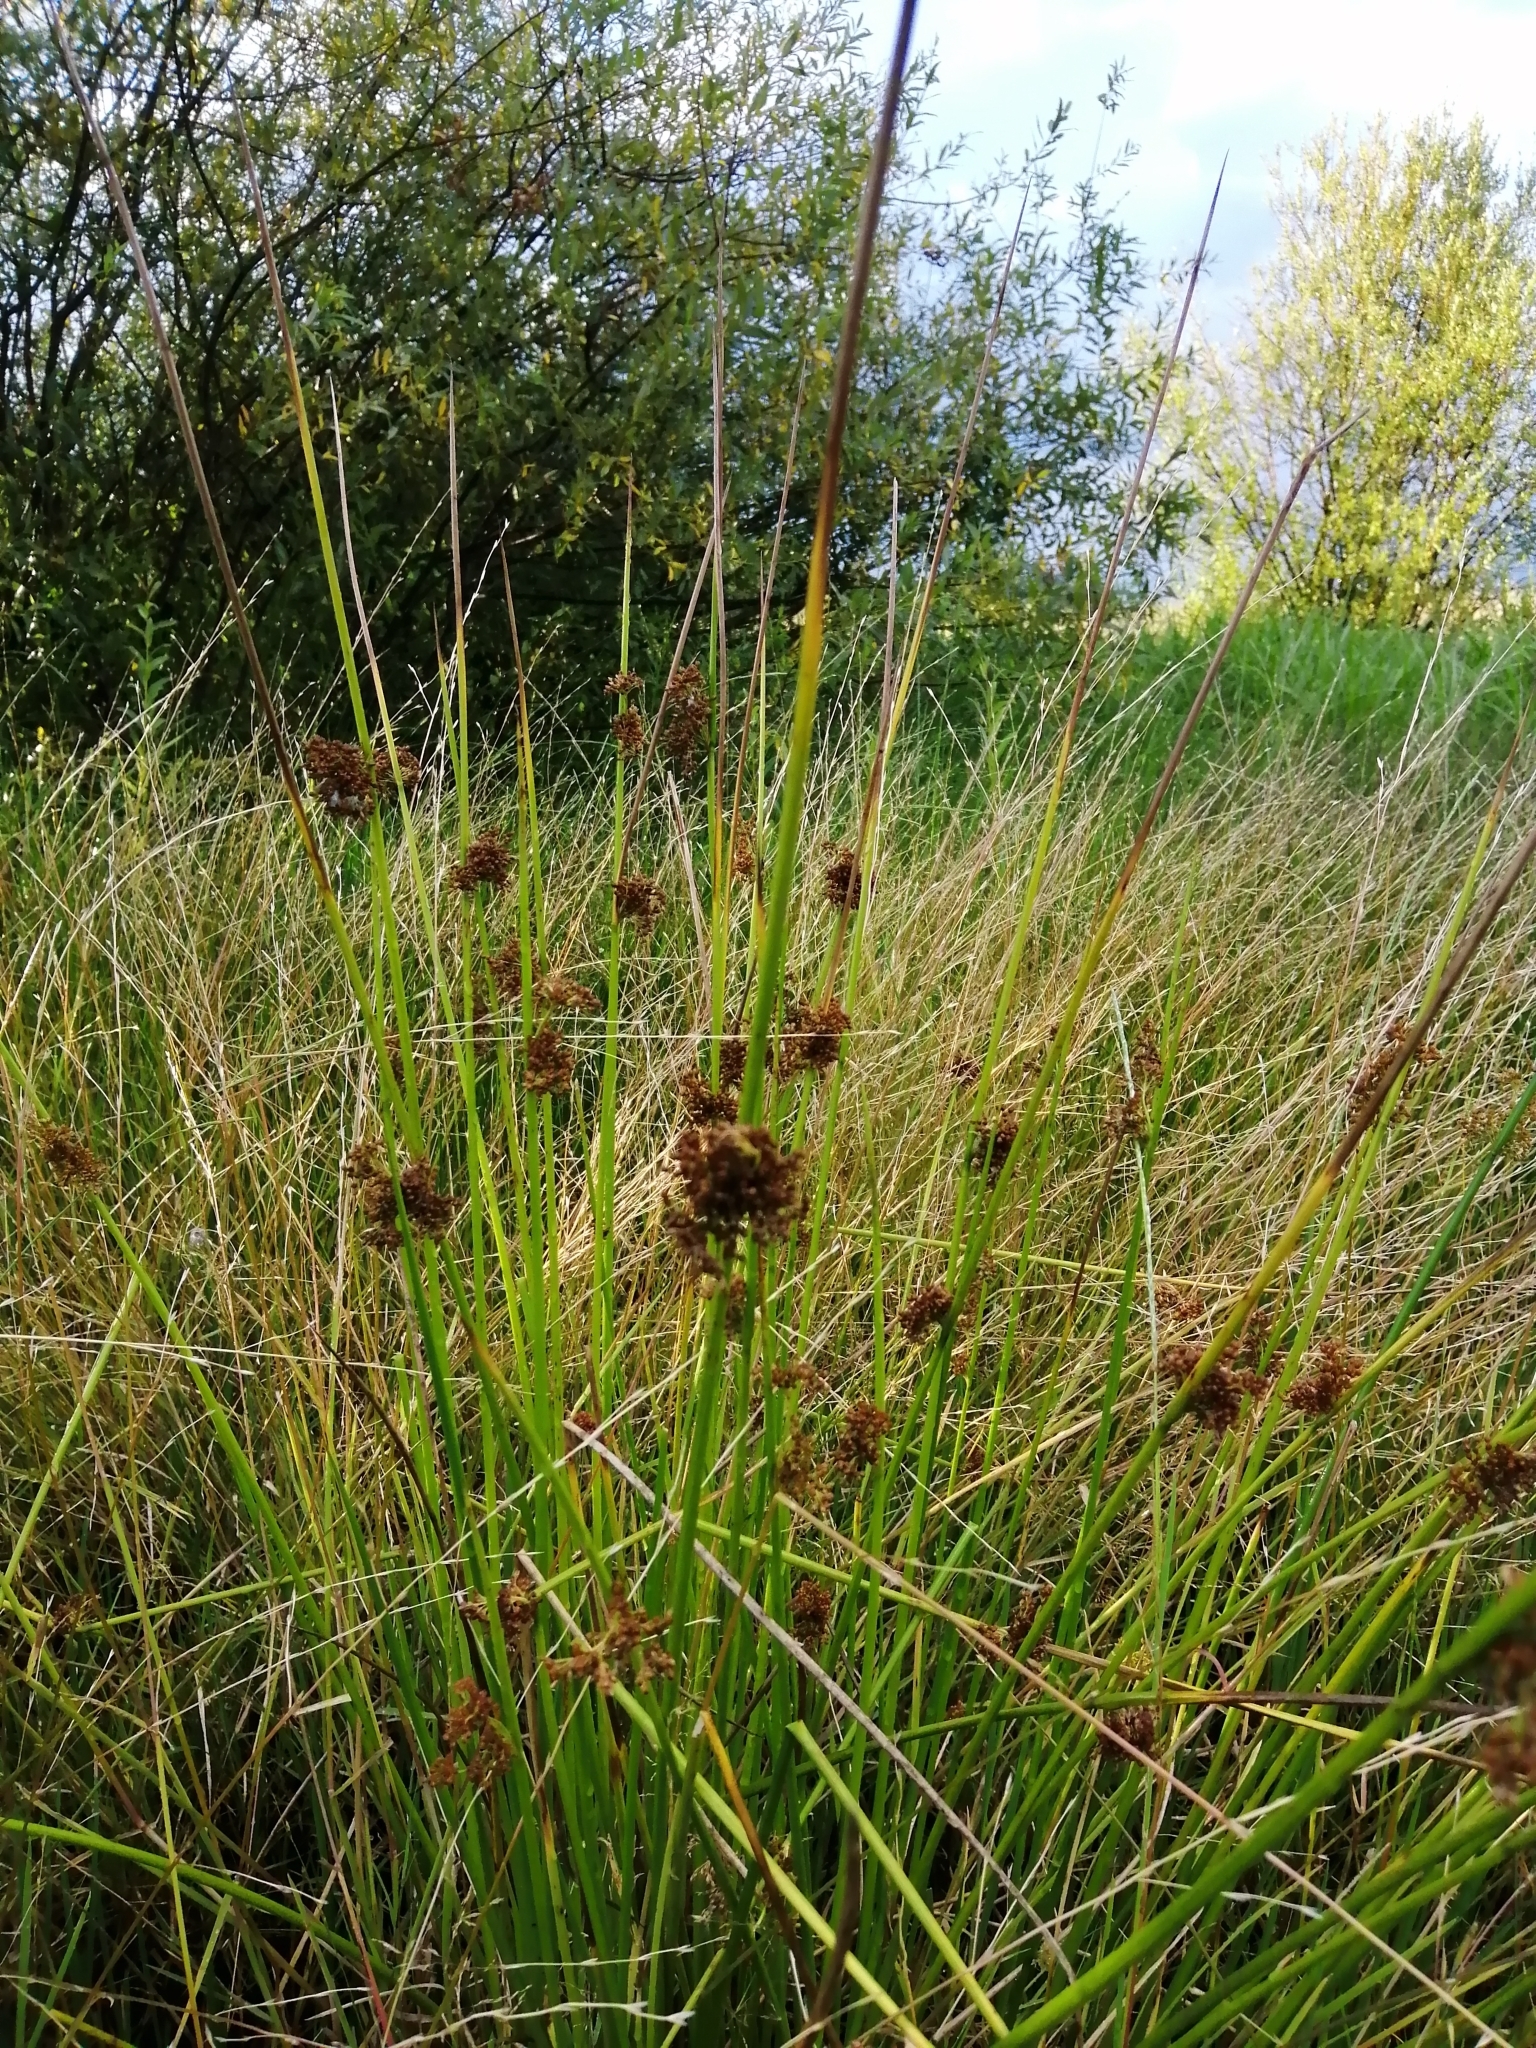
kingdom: Plantae
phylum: Tracheophyta
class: Liliopsida
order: Poales
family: Juncaceae
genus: Juncus
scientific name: Juncus effusus
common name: Soft rush
